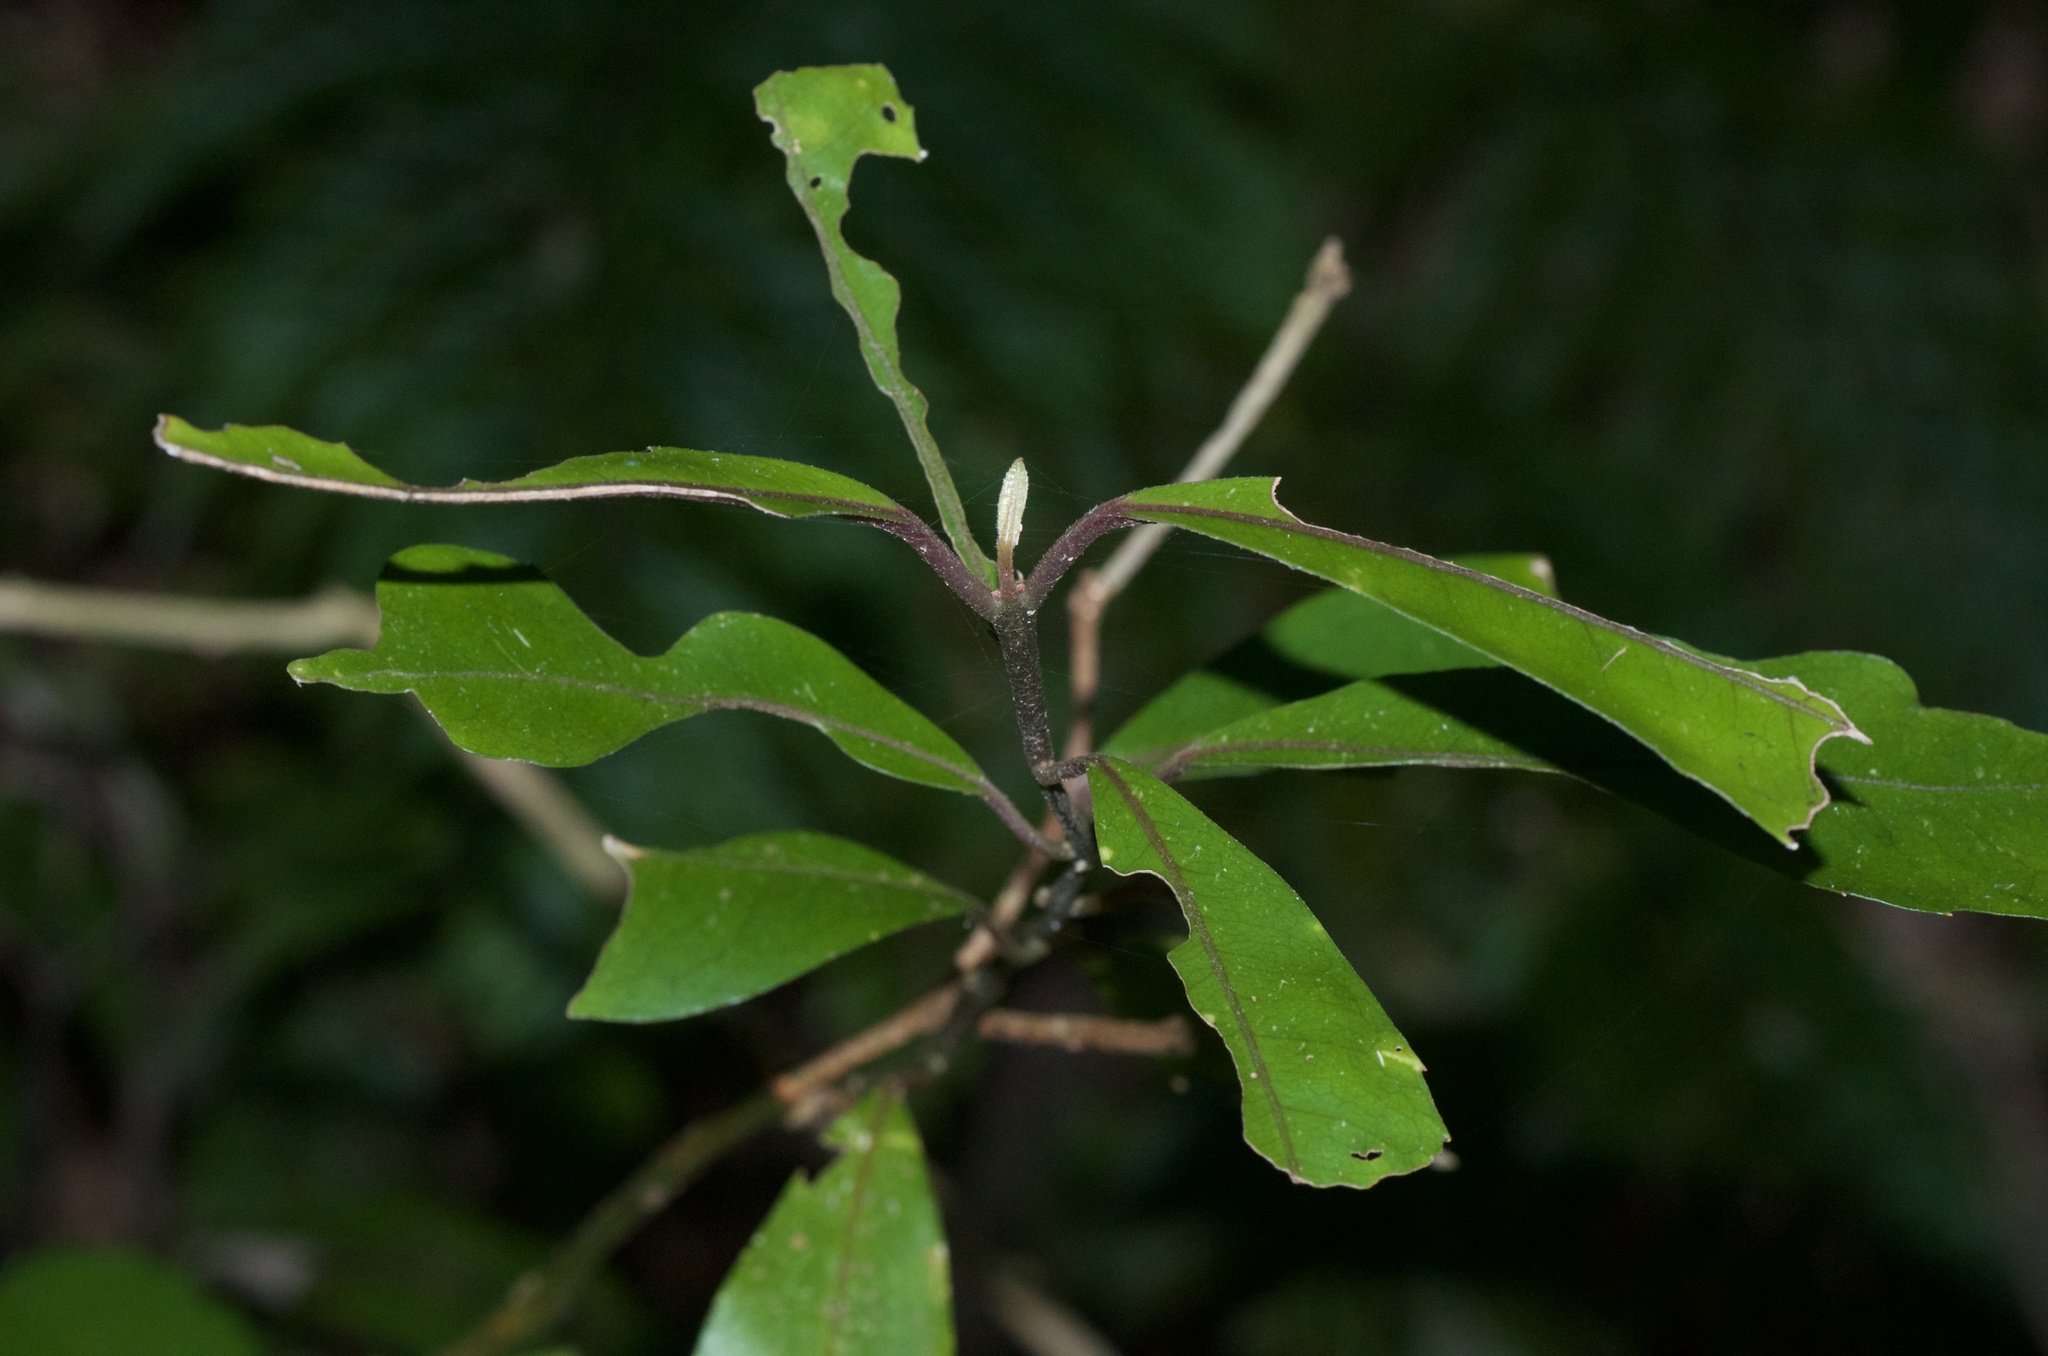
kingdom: Plantae
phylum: Tracheophyta
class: Magnoliopsida
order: Laurales
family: Monimiaceae
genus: Hedycarya
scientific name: Hedycarya arborea
